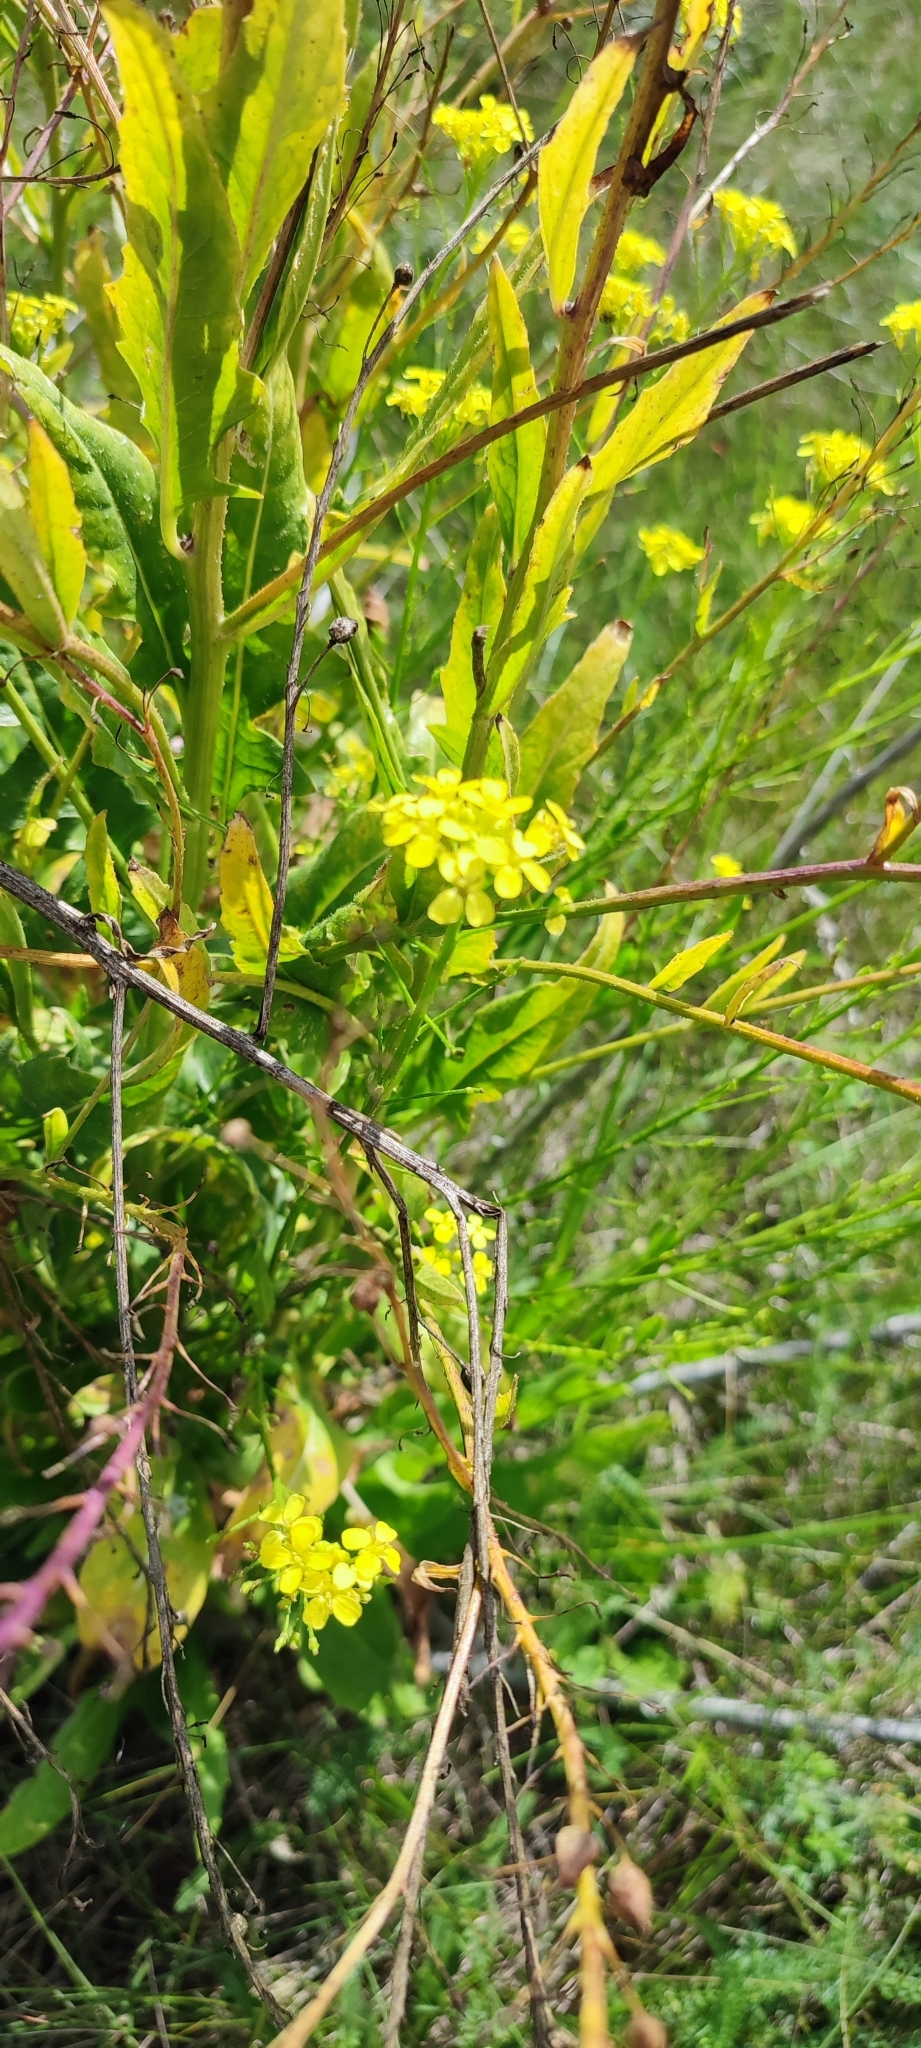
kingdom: Plantae
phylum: Tracheophyta
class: Magnoliopsida
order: Brassicales
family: Brassicaceae
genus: Bunias
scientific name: Bunias orientalis
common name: Warty-cabbage
